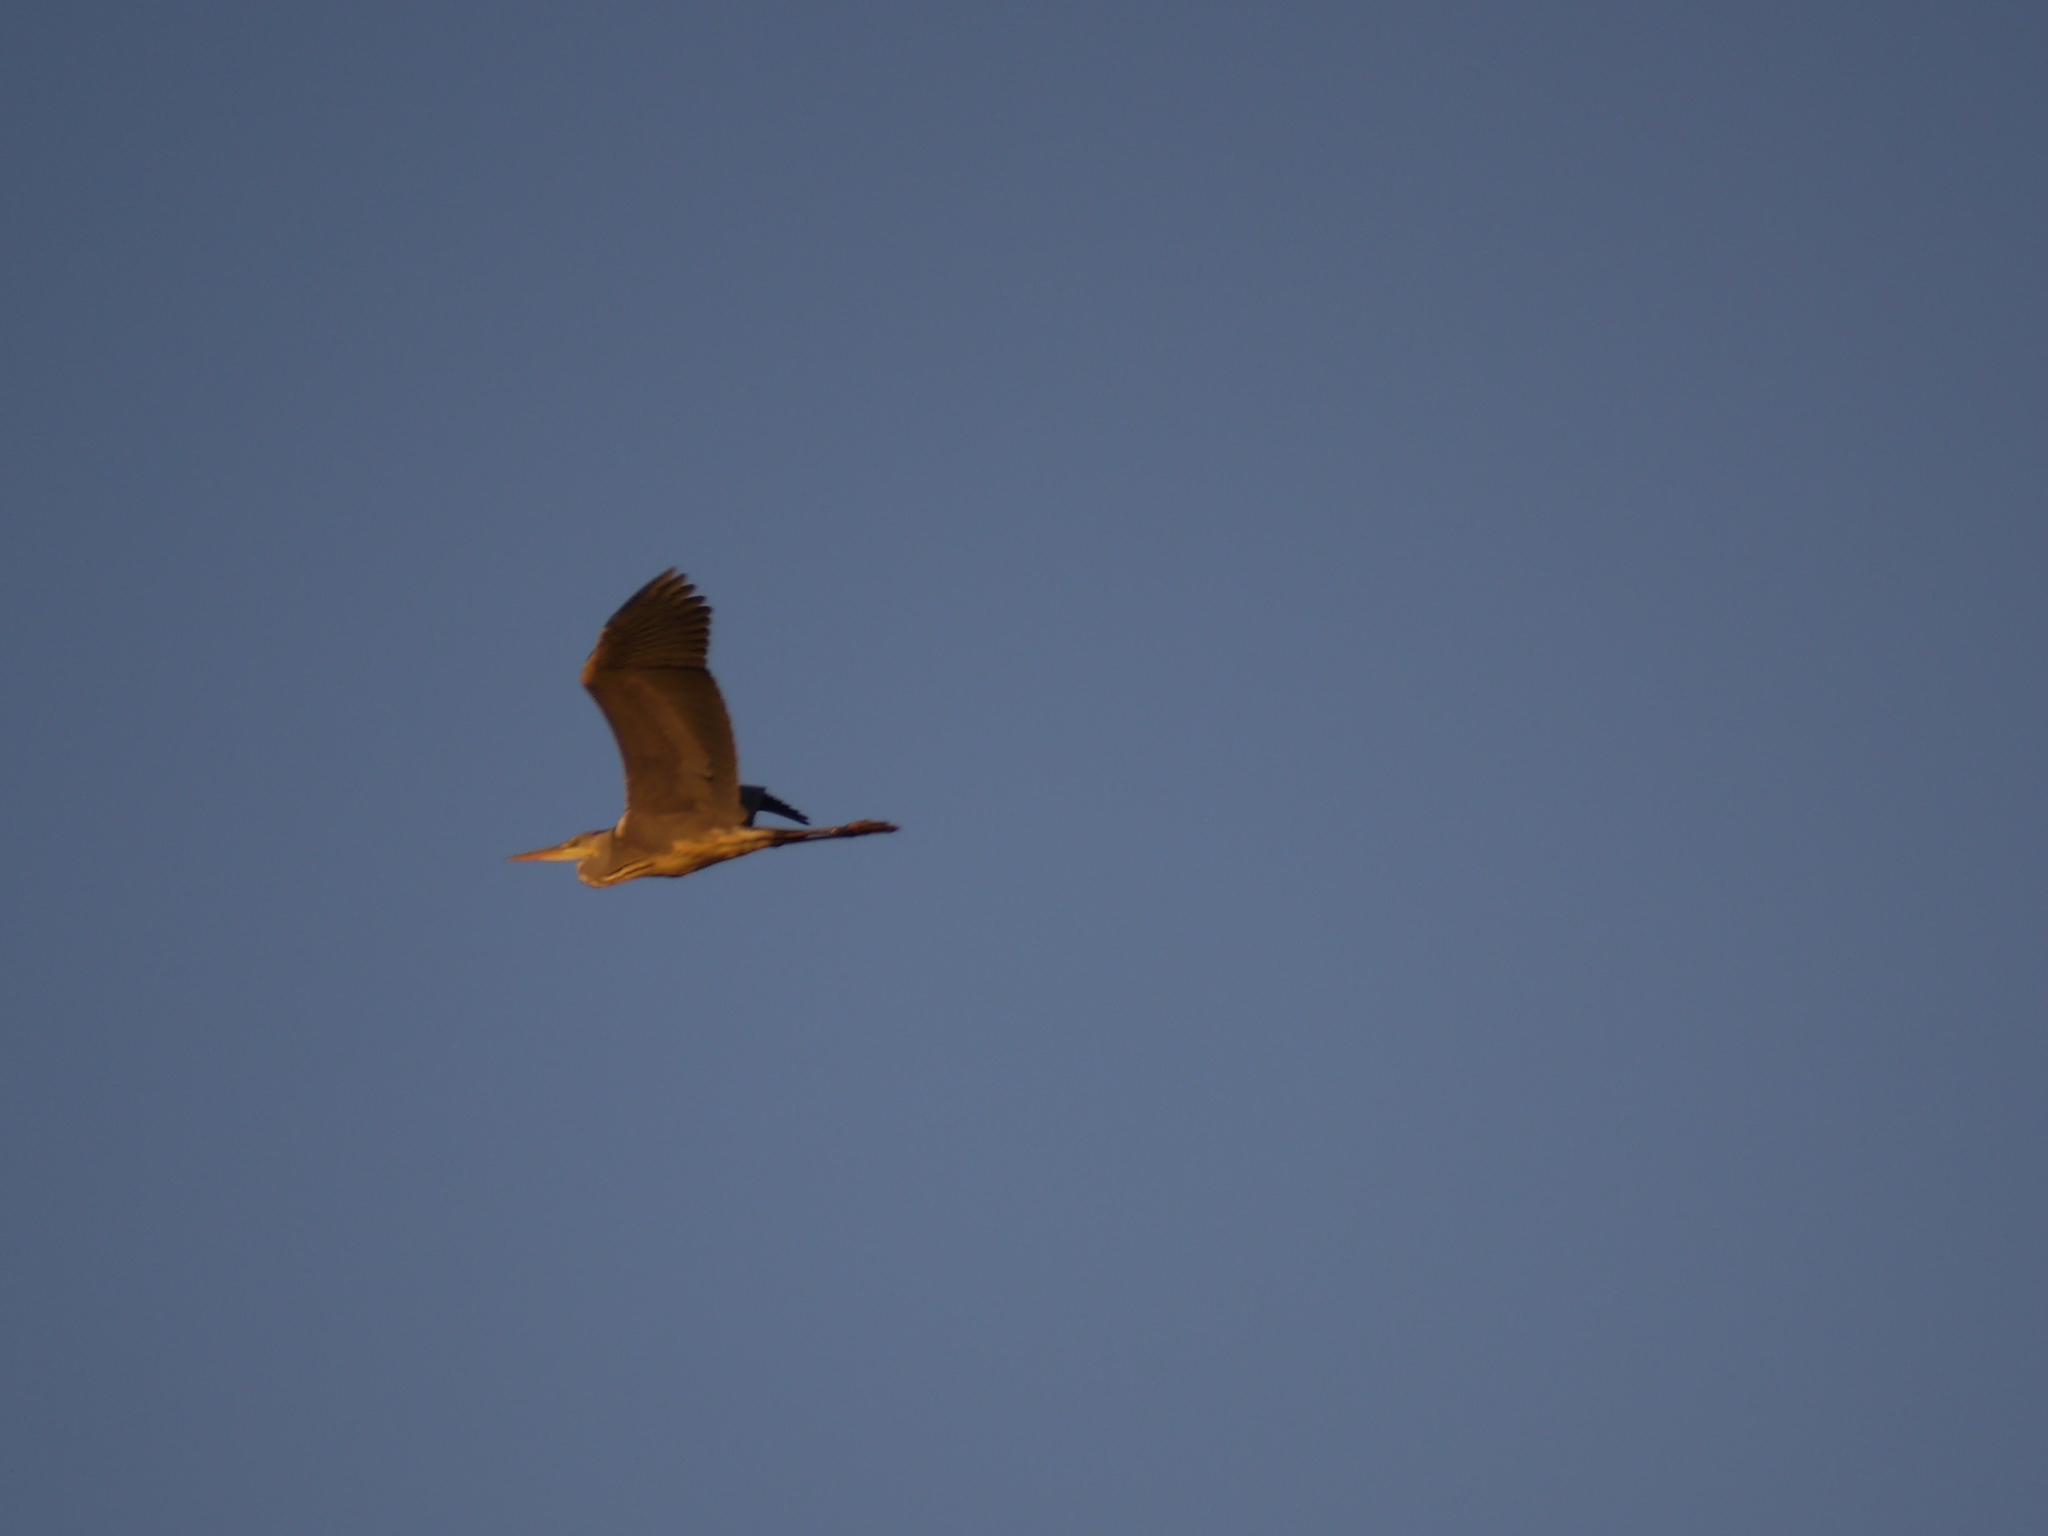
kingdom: Animalia
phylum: Chordata
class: Aves
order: Pelecaniformes
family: Ardeidae
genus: Ardea
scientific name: Ardea cinerea
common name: Grey heron
